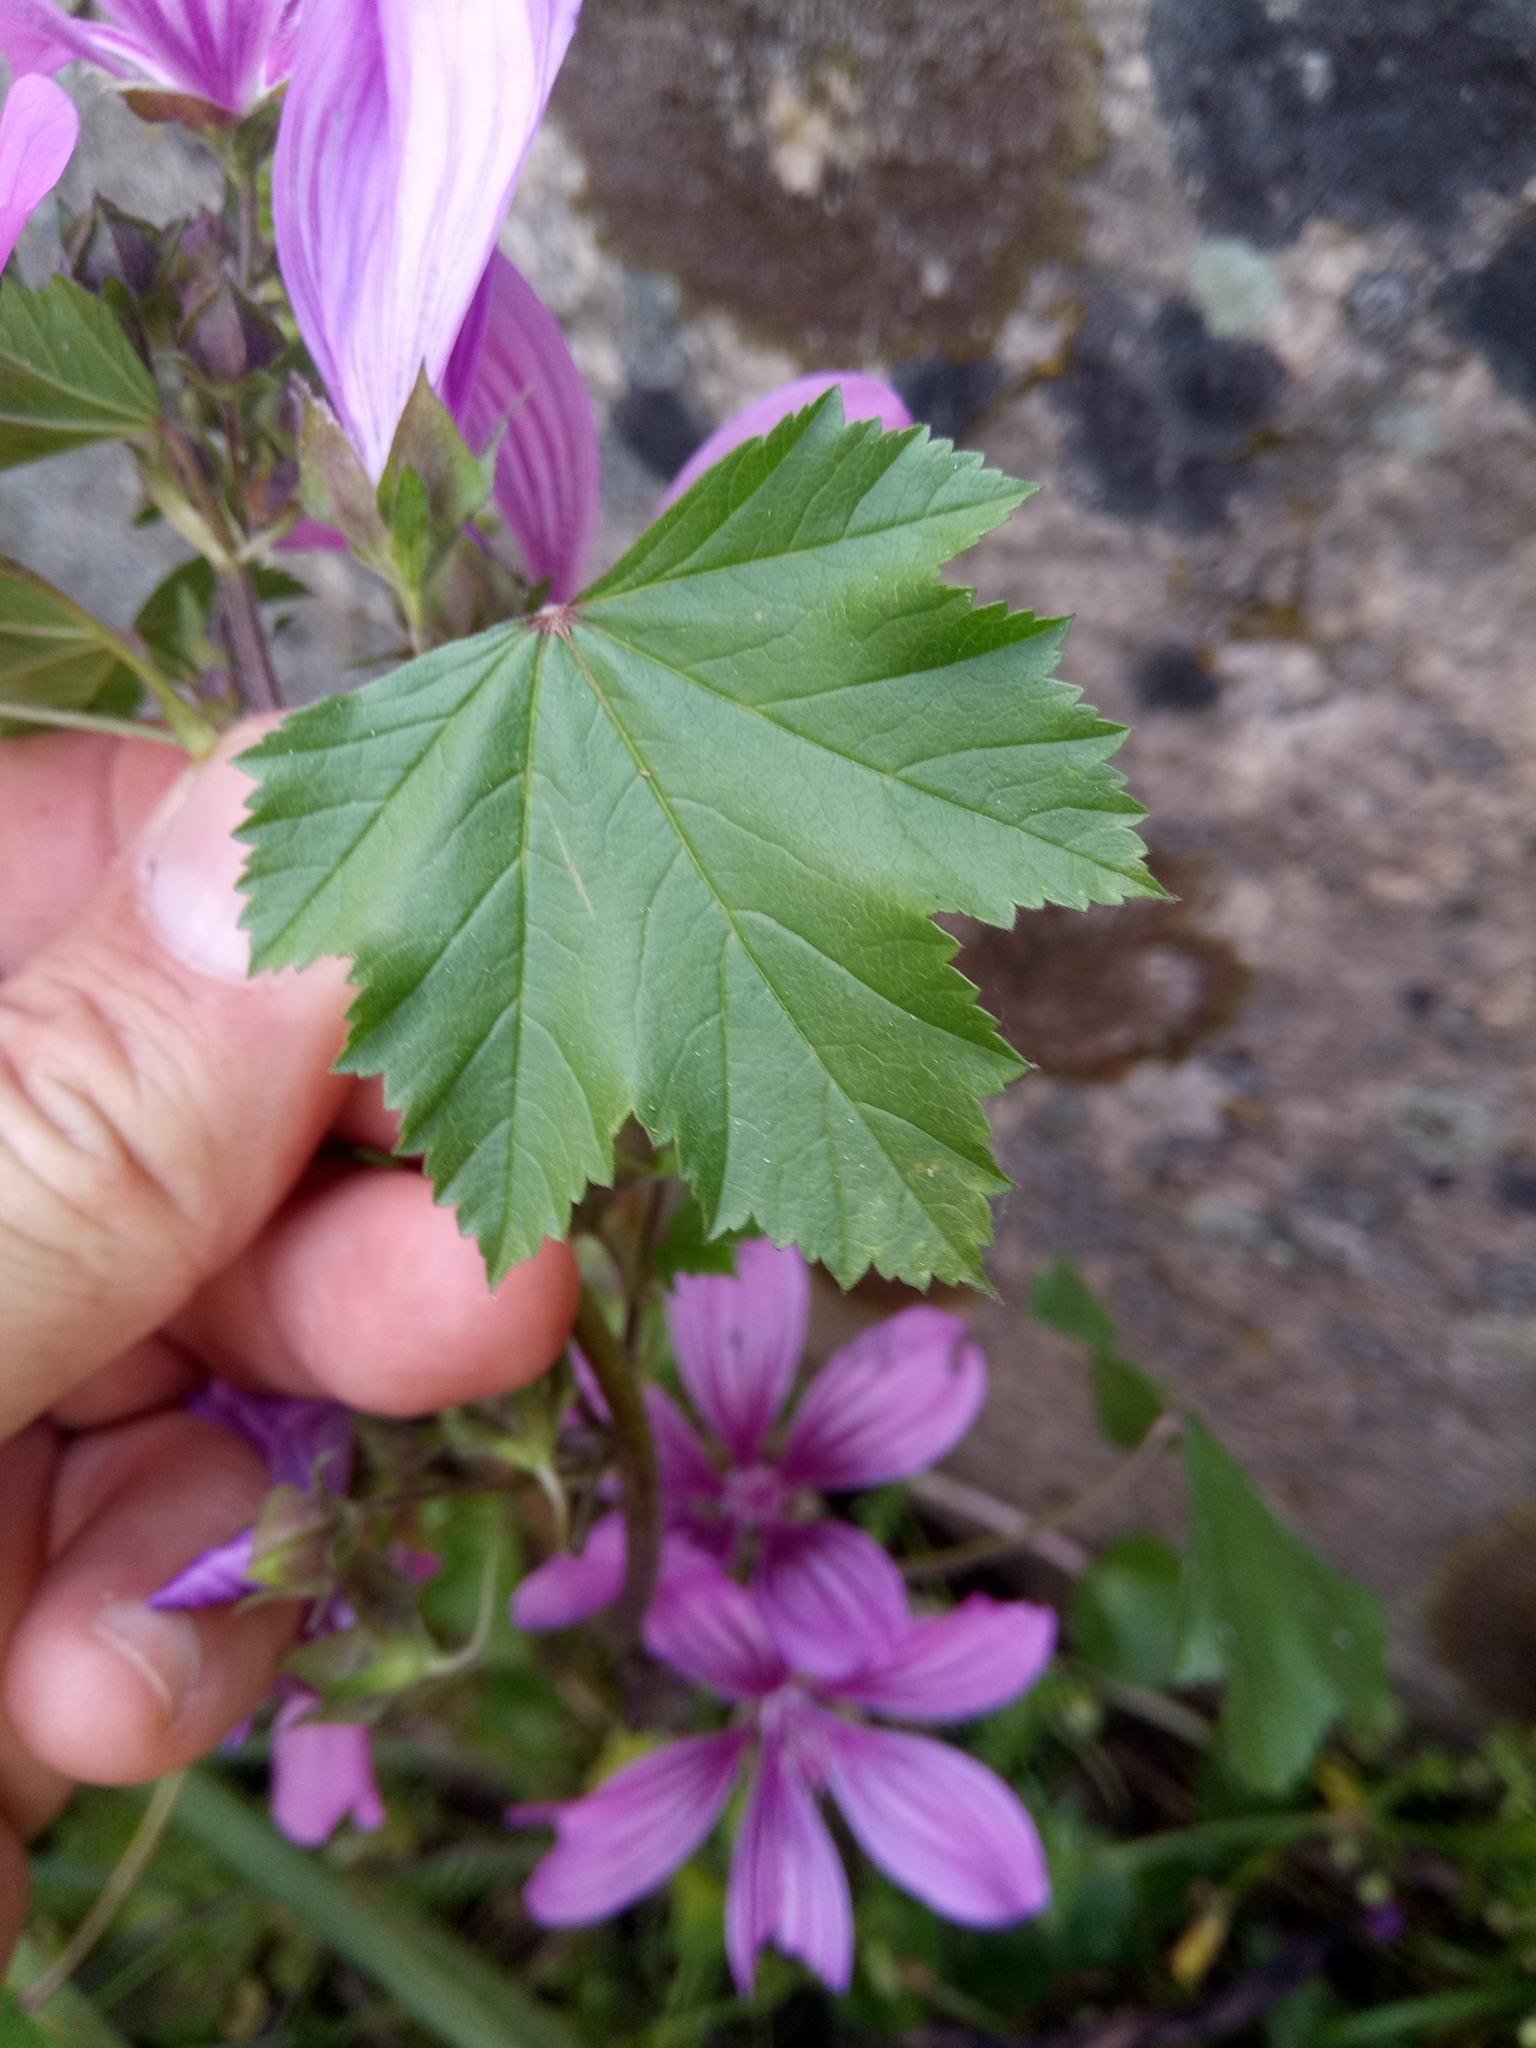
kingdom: Plantae
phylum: Tracheophyta
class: Magnoliopsida
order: Malvales
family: Malvaceae
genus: Malva
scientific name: Malva sylvestris
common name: Common mallow
